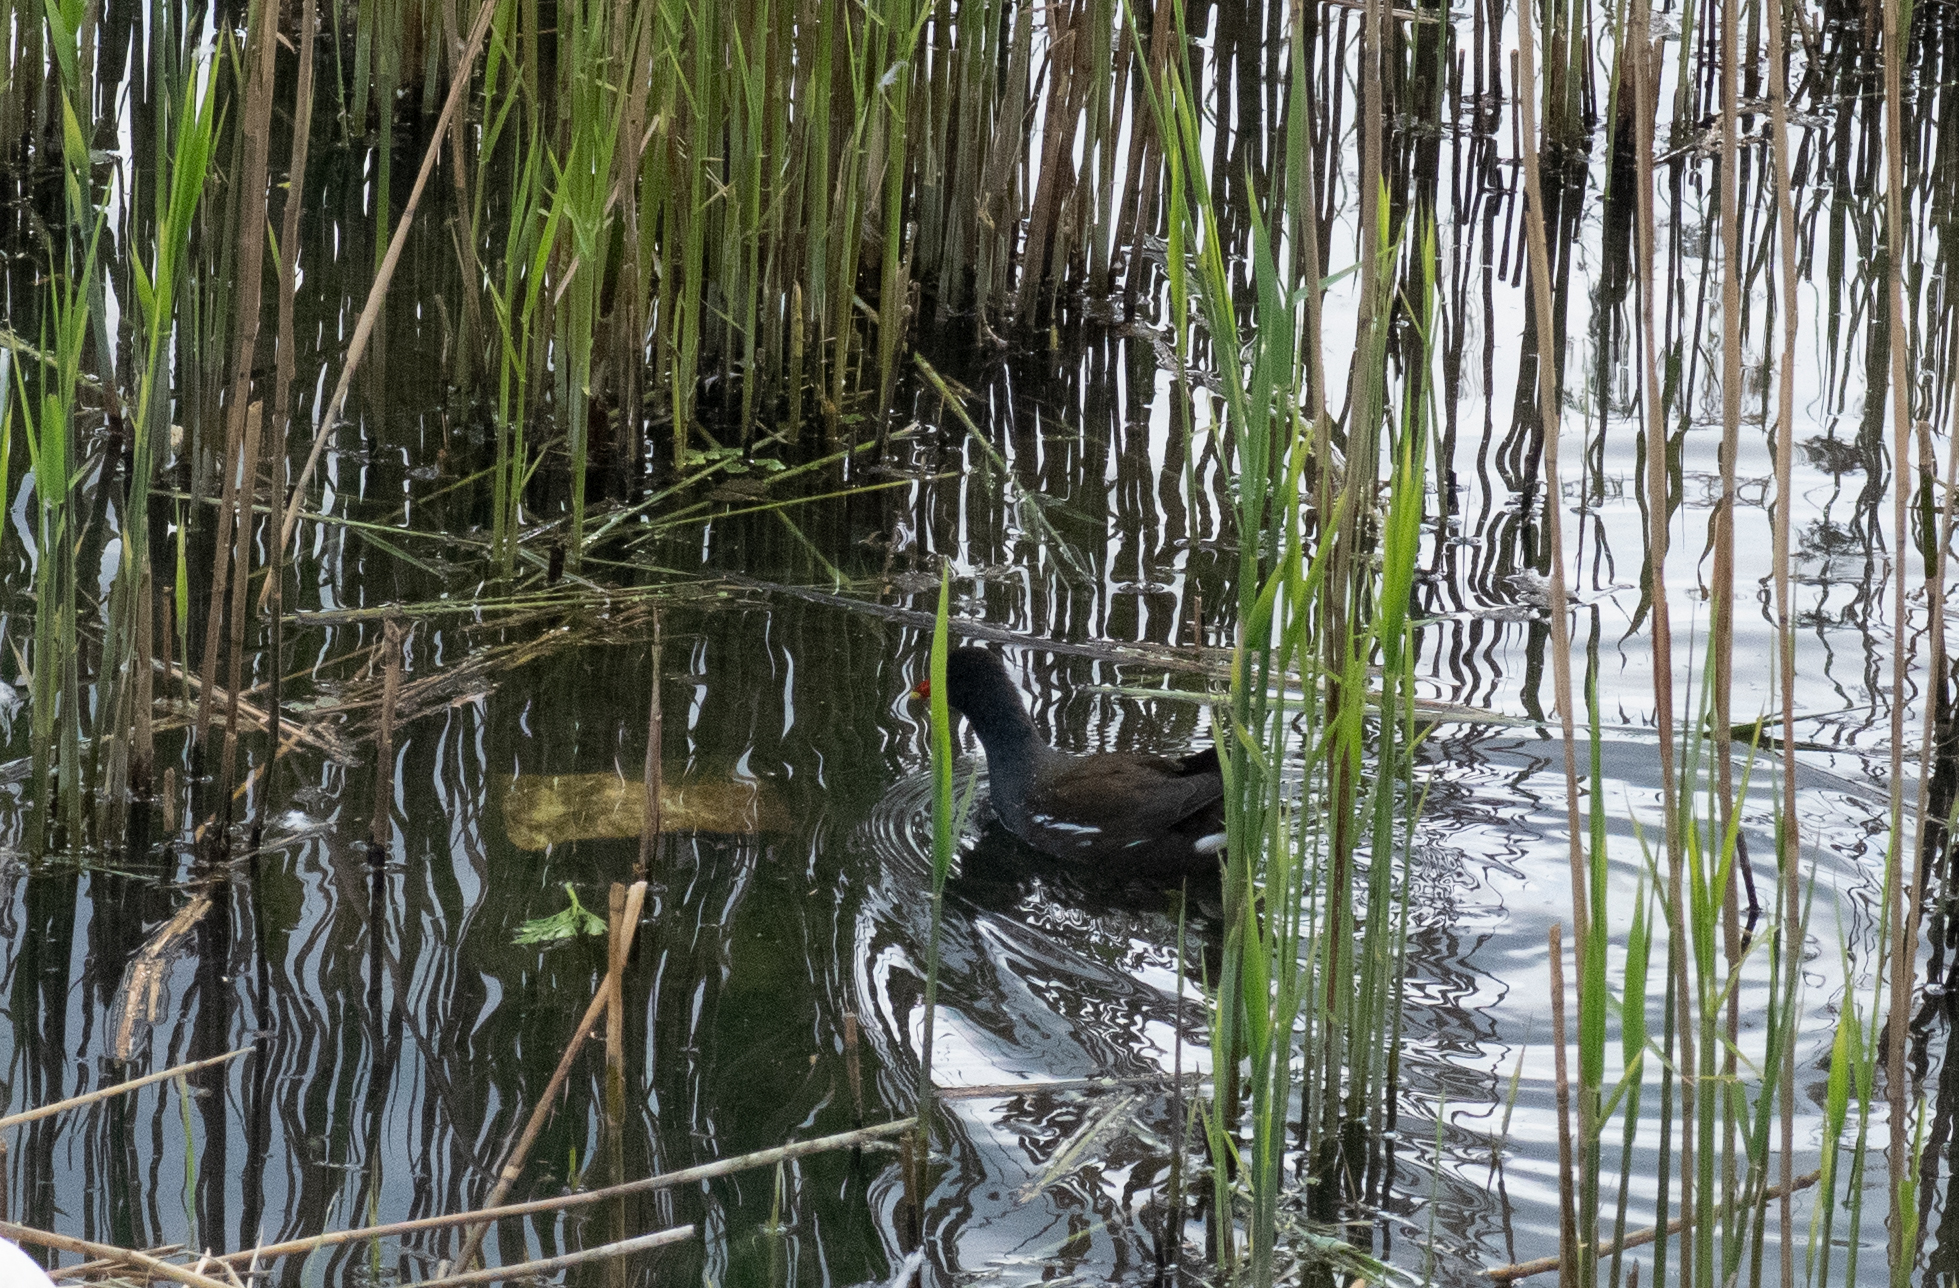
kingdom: Animalia
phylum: Chordata
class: Aves
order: Gruiformes
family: Rallidae
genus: Gallinula
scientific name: Gallinula chloropus
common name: Common moorhen
